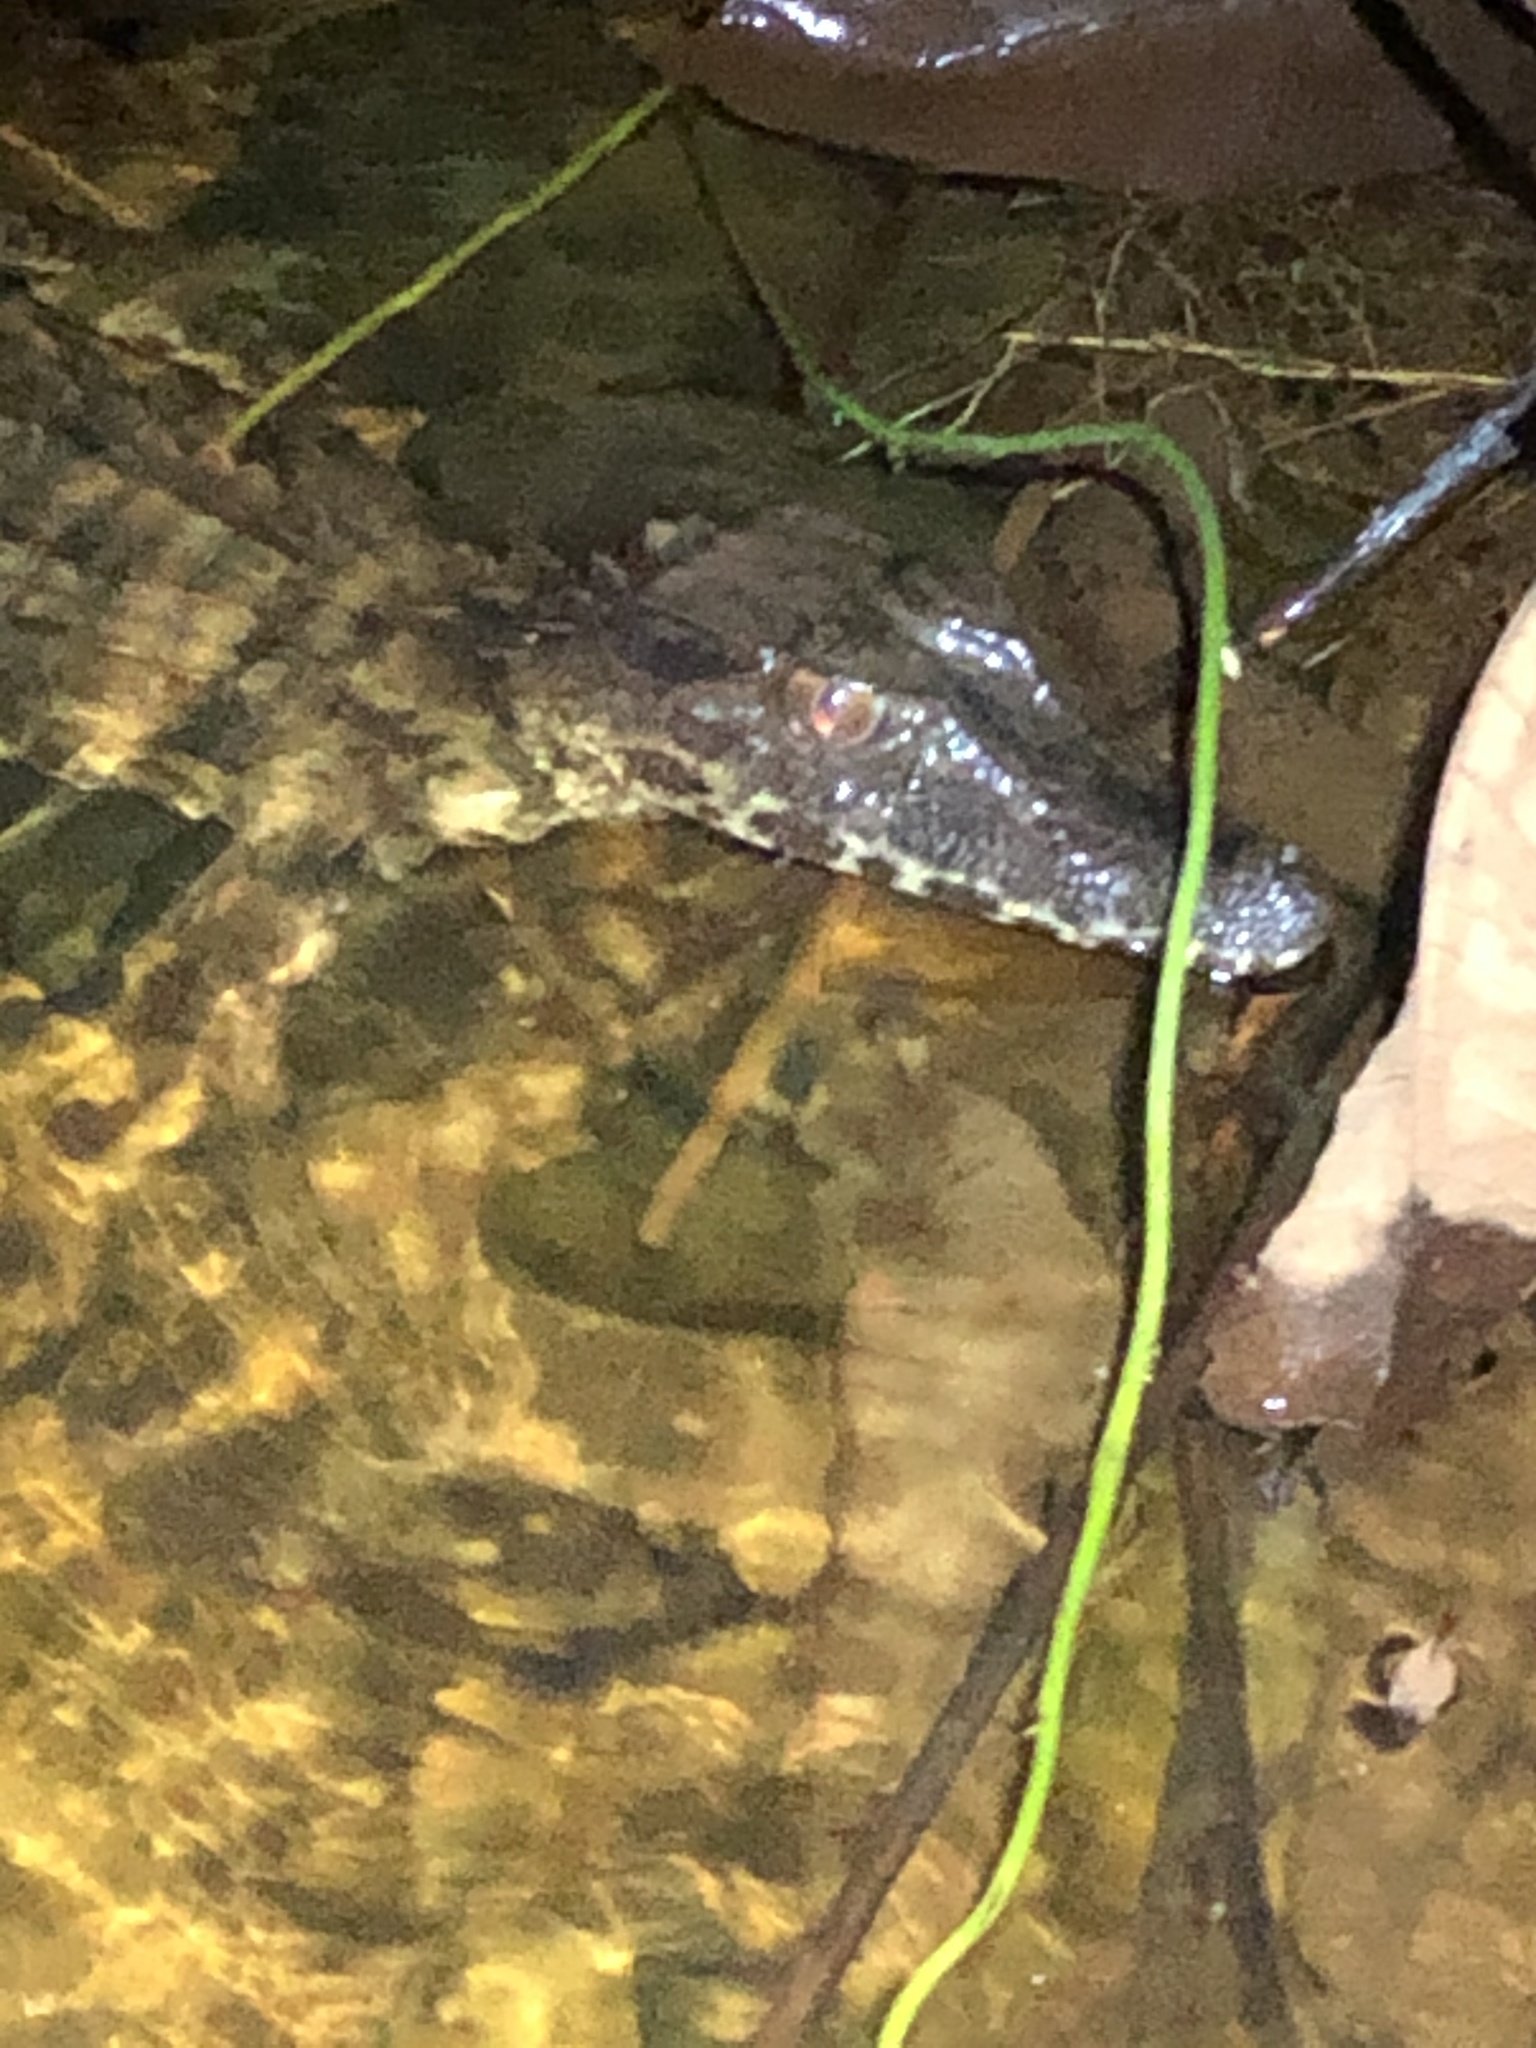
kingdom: Animalia
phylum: Chordata
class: Crocodylia
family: Alligatoridae
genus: Paleosuchus
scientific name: Paleosuchus trigonatus
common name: Schneider's smooth-fronted caiman
